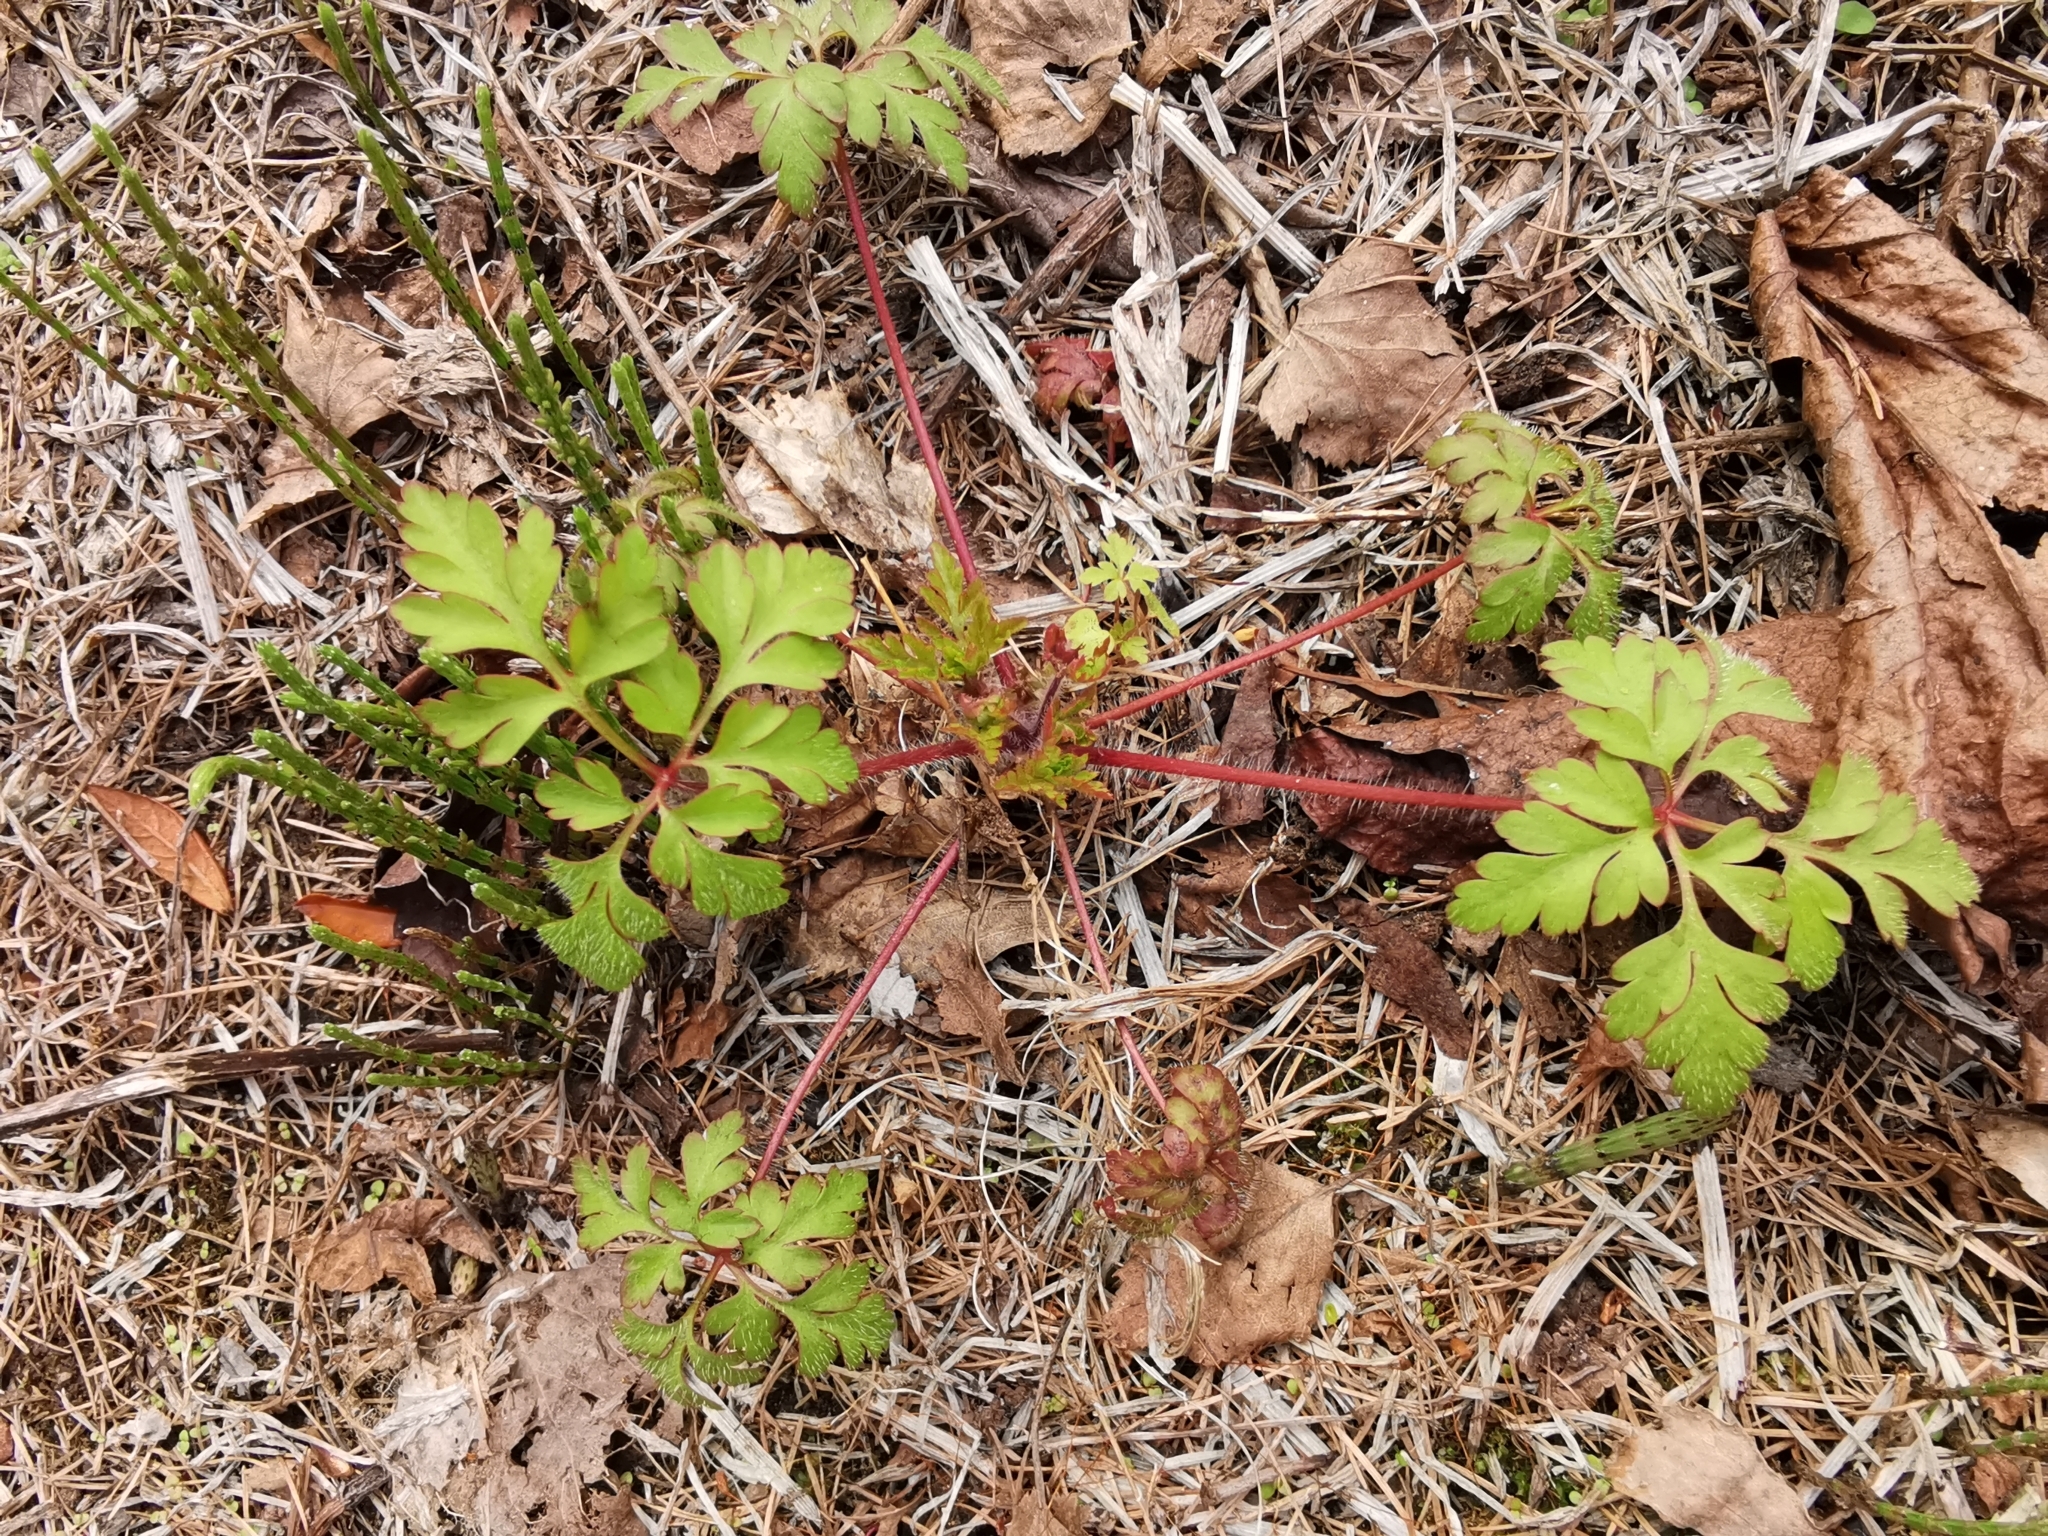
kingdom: Plantae
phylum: Tracheophyta
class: Magnoliopsida
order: Geraniales
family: Geraniaceae
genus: Geranium
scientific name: Geranium robertianum
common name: Herb-robert
